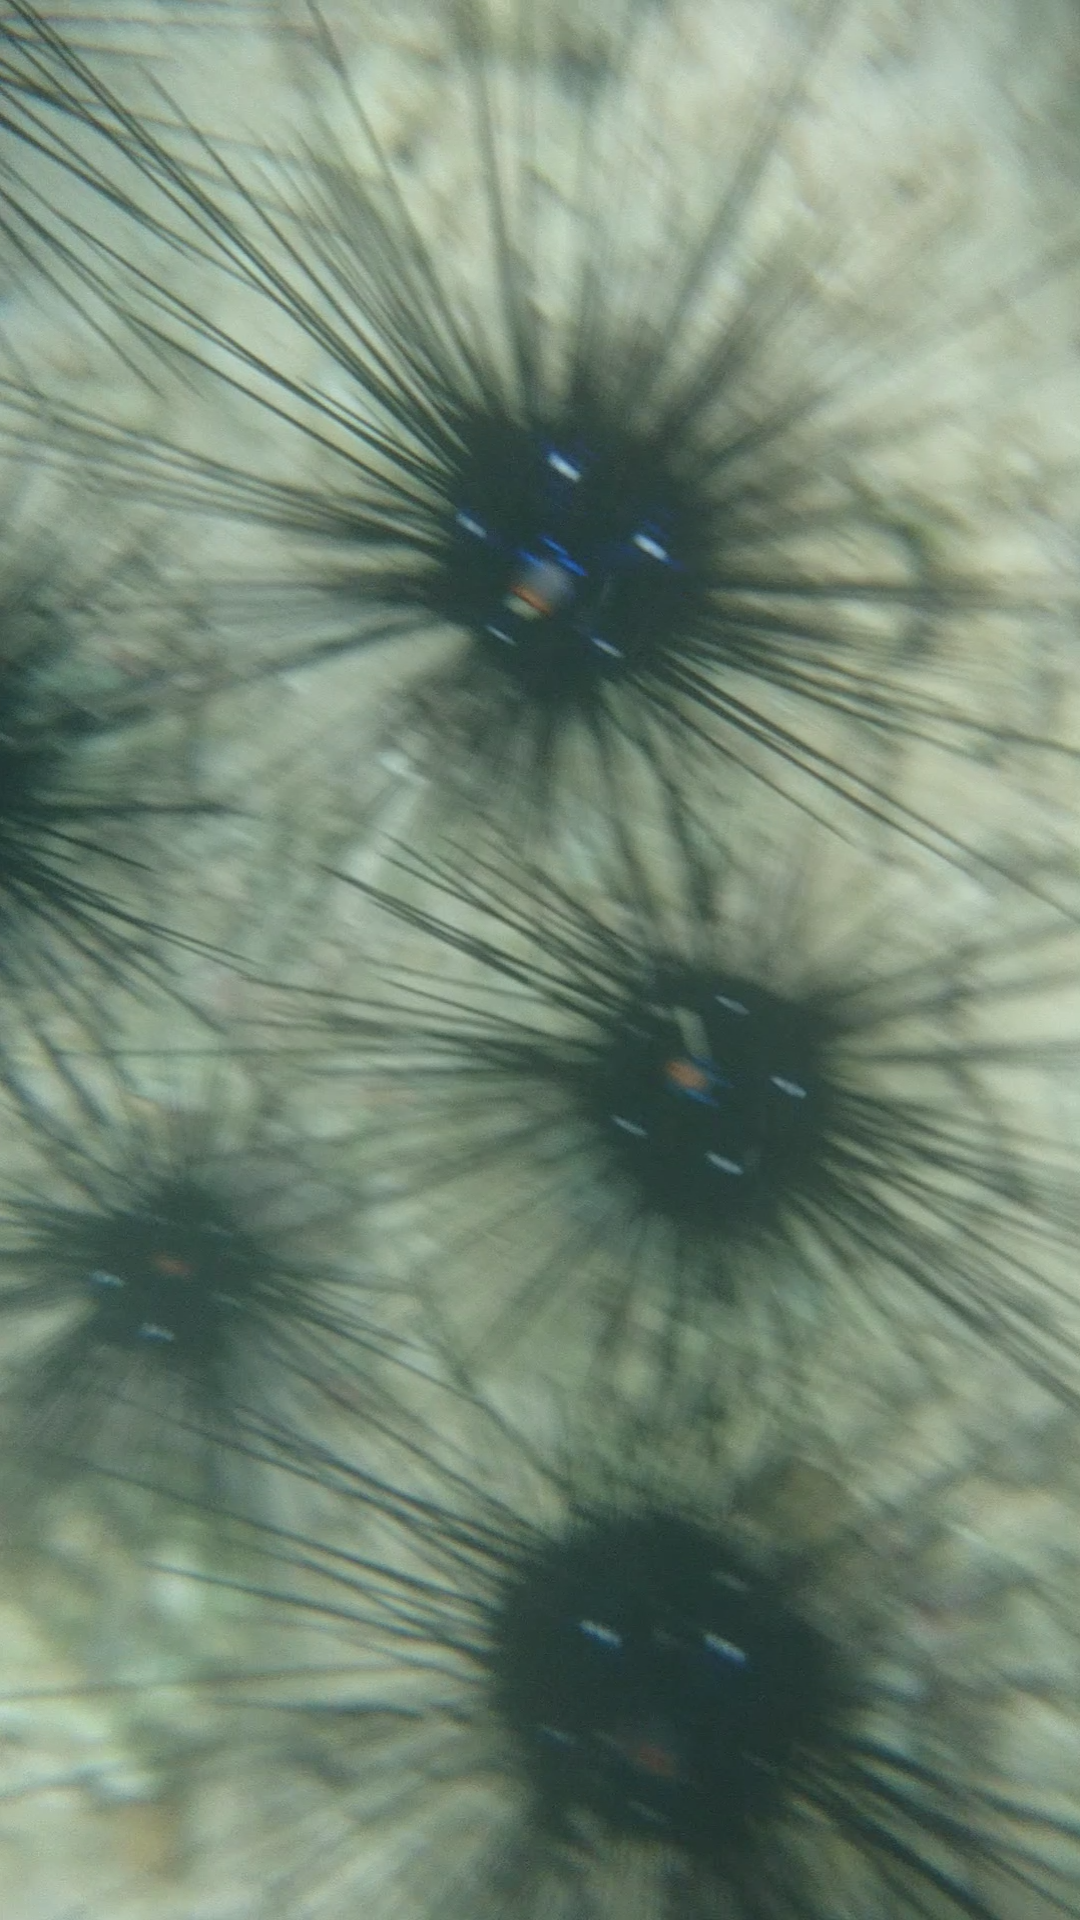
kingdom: Animalia
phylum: Echinodermata
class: Echinoidea
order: Diadematoida
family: Diadematidae
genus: Diadema
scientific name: Diadema setosum
